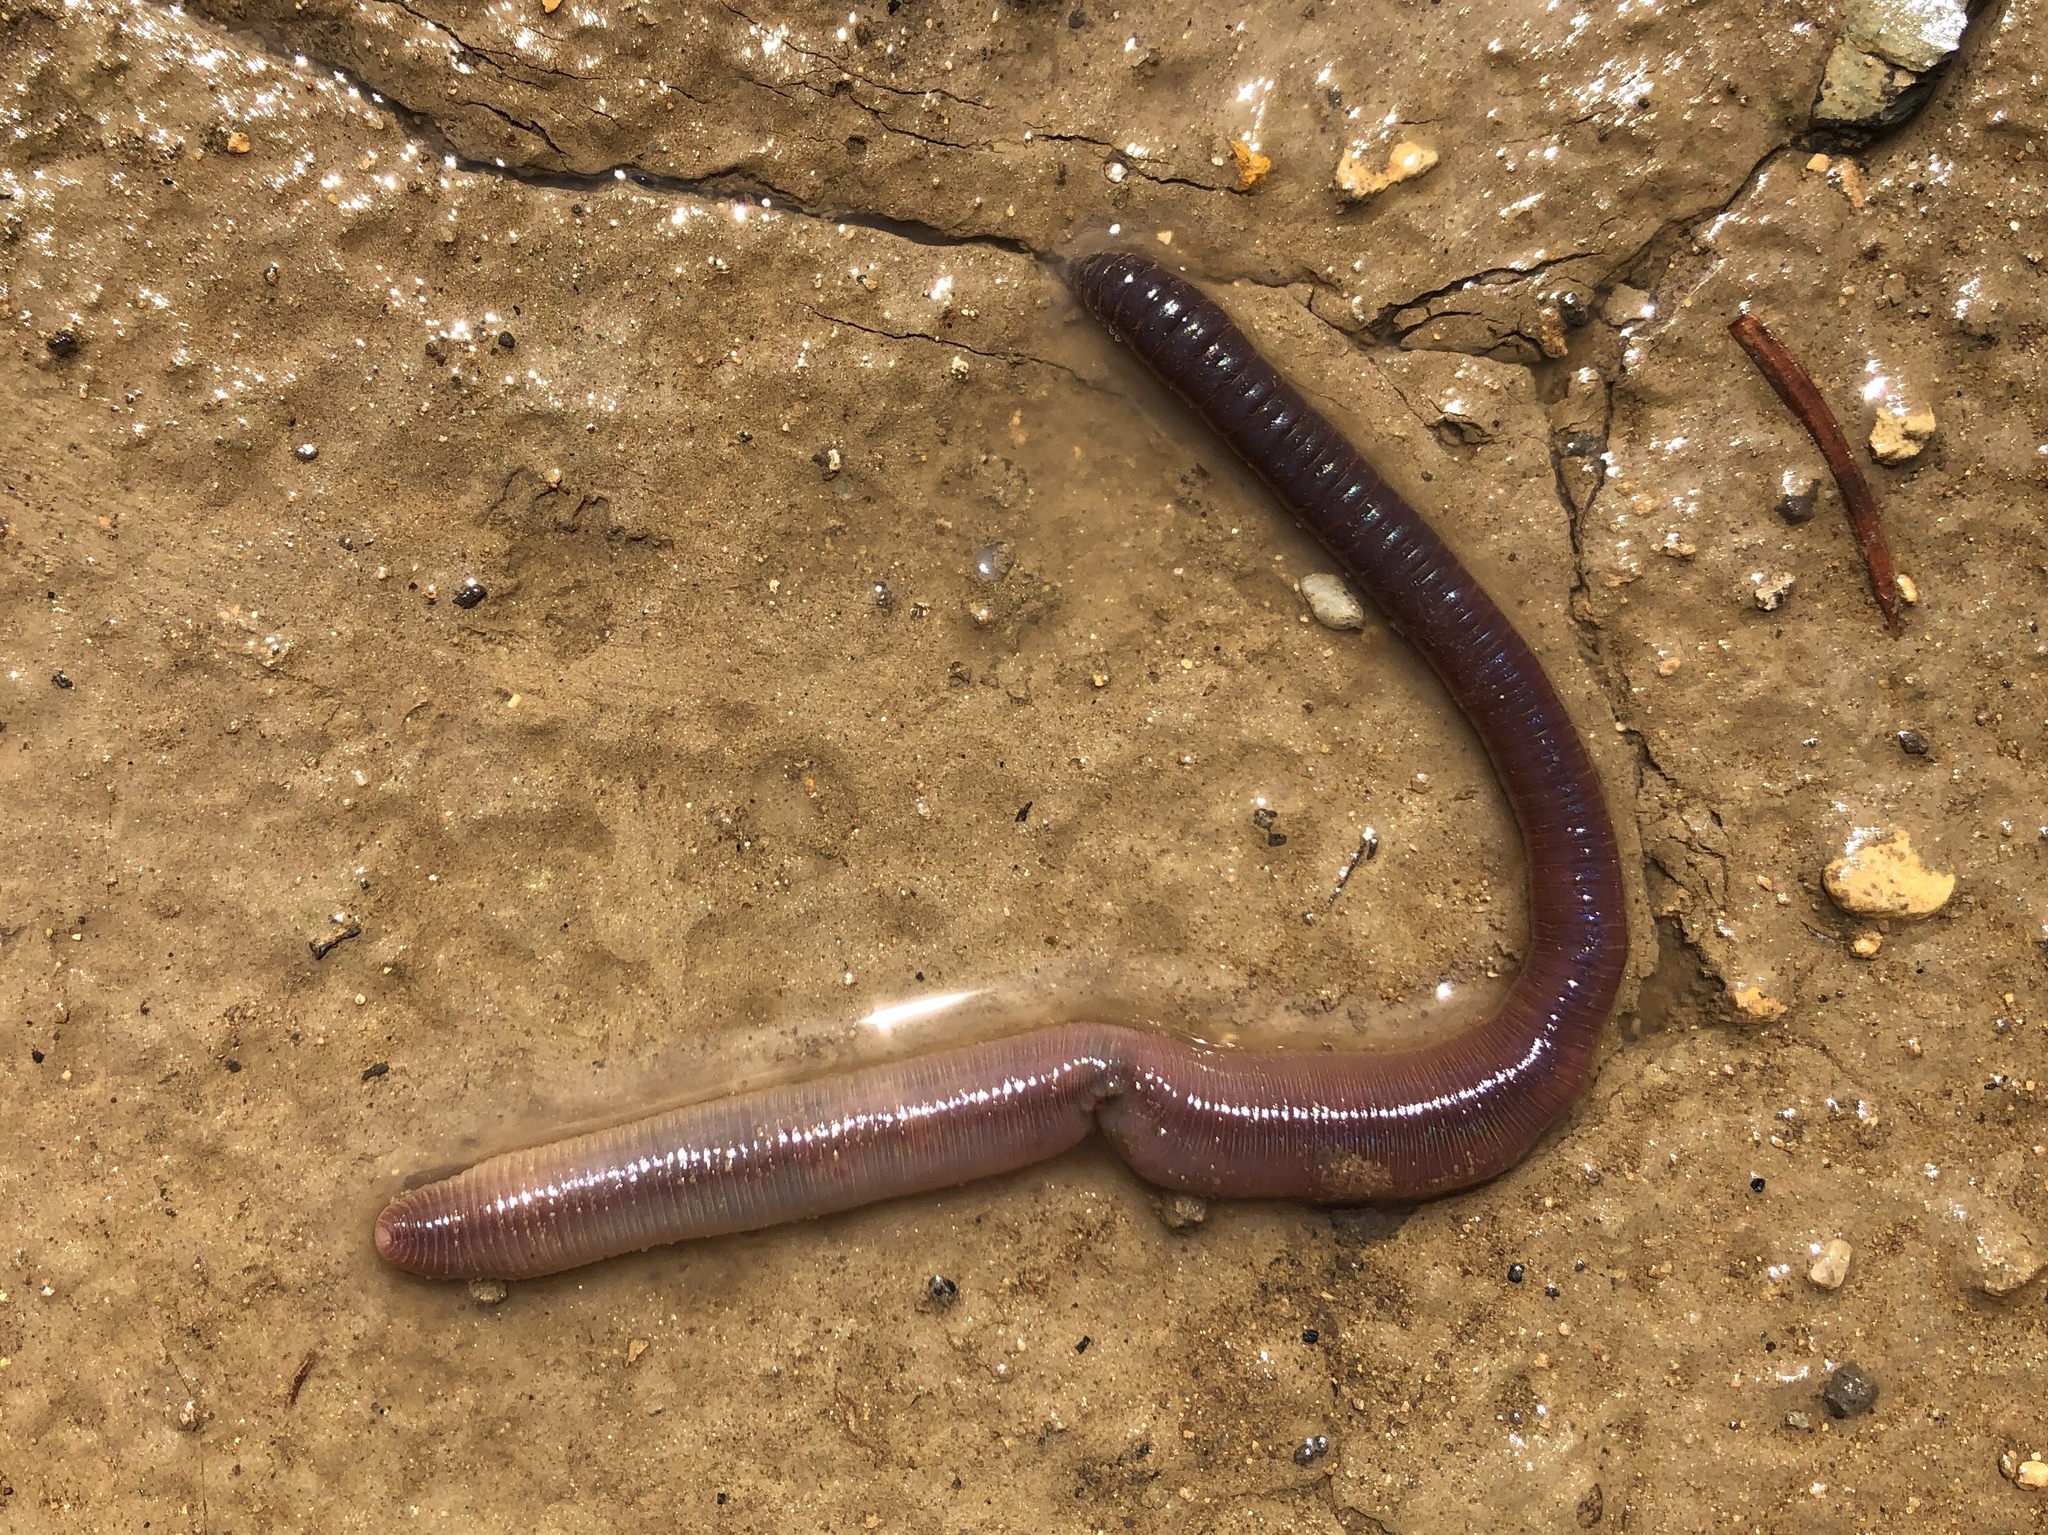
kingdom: Animalia
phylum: Annelida
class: Clitellata
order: Crassiclitellata
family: Lumbricidae
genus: Lumbricus
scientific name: Lumbricus terrestris
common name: Common earthworm
